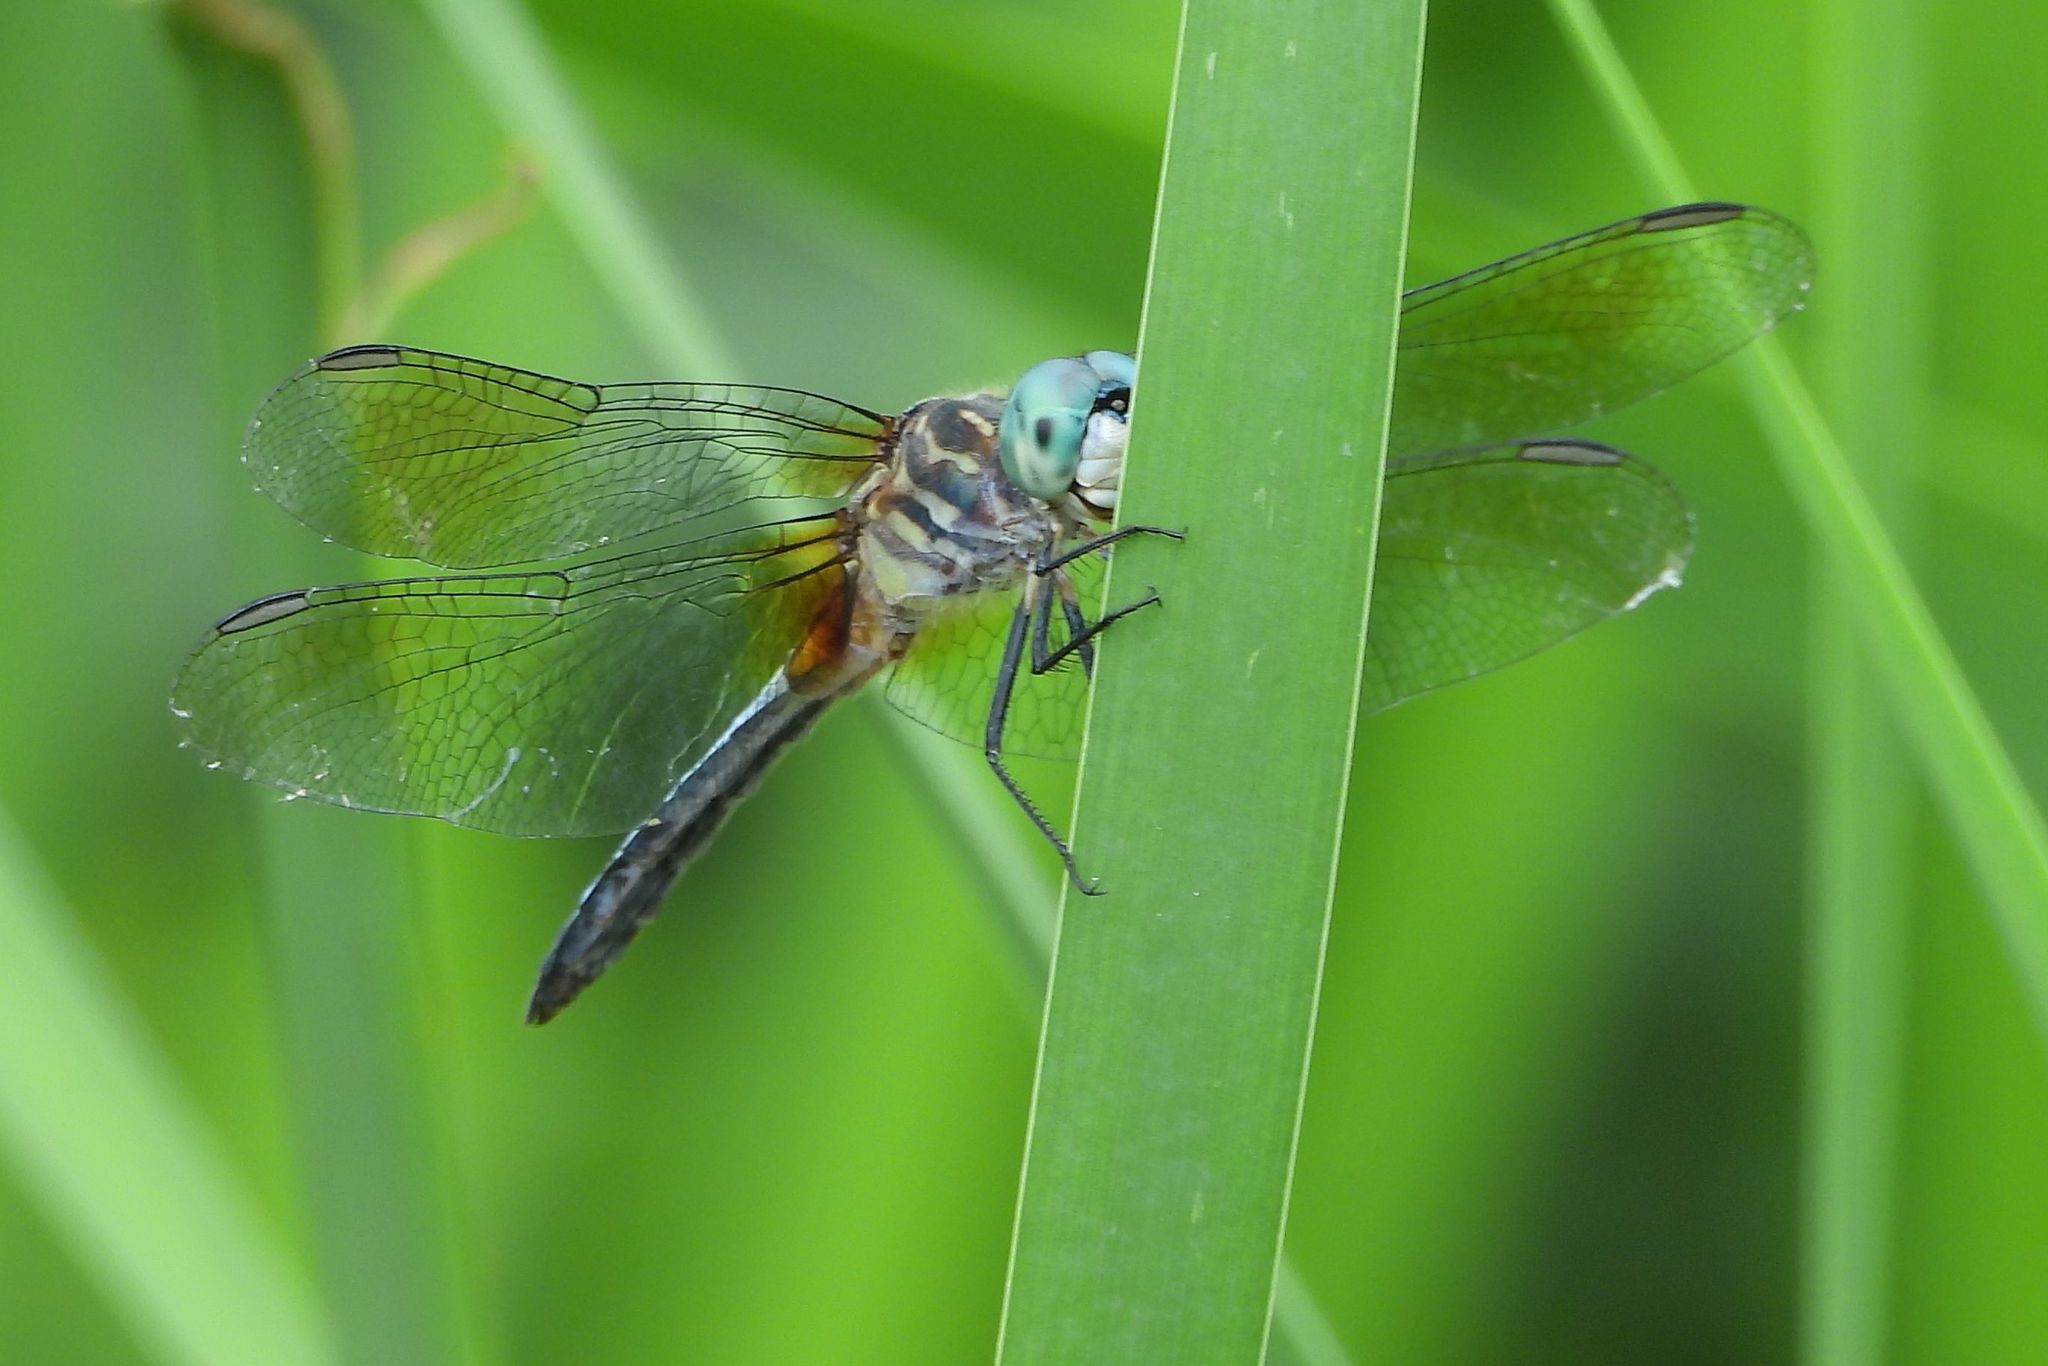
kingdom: Animalia
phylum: Arthropoda
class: Insecta
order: Odonata
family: Libellulidae
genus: Pachydiplax
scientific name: Pachydiplax longipennis
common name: Blue dasher
